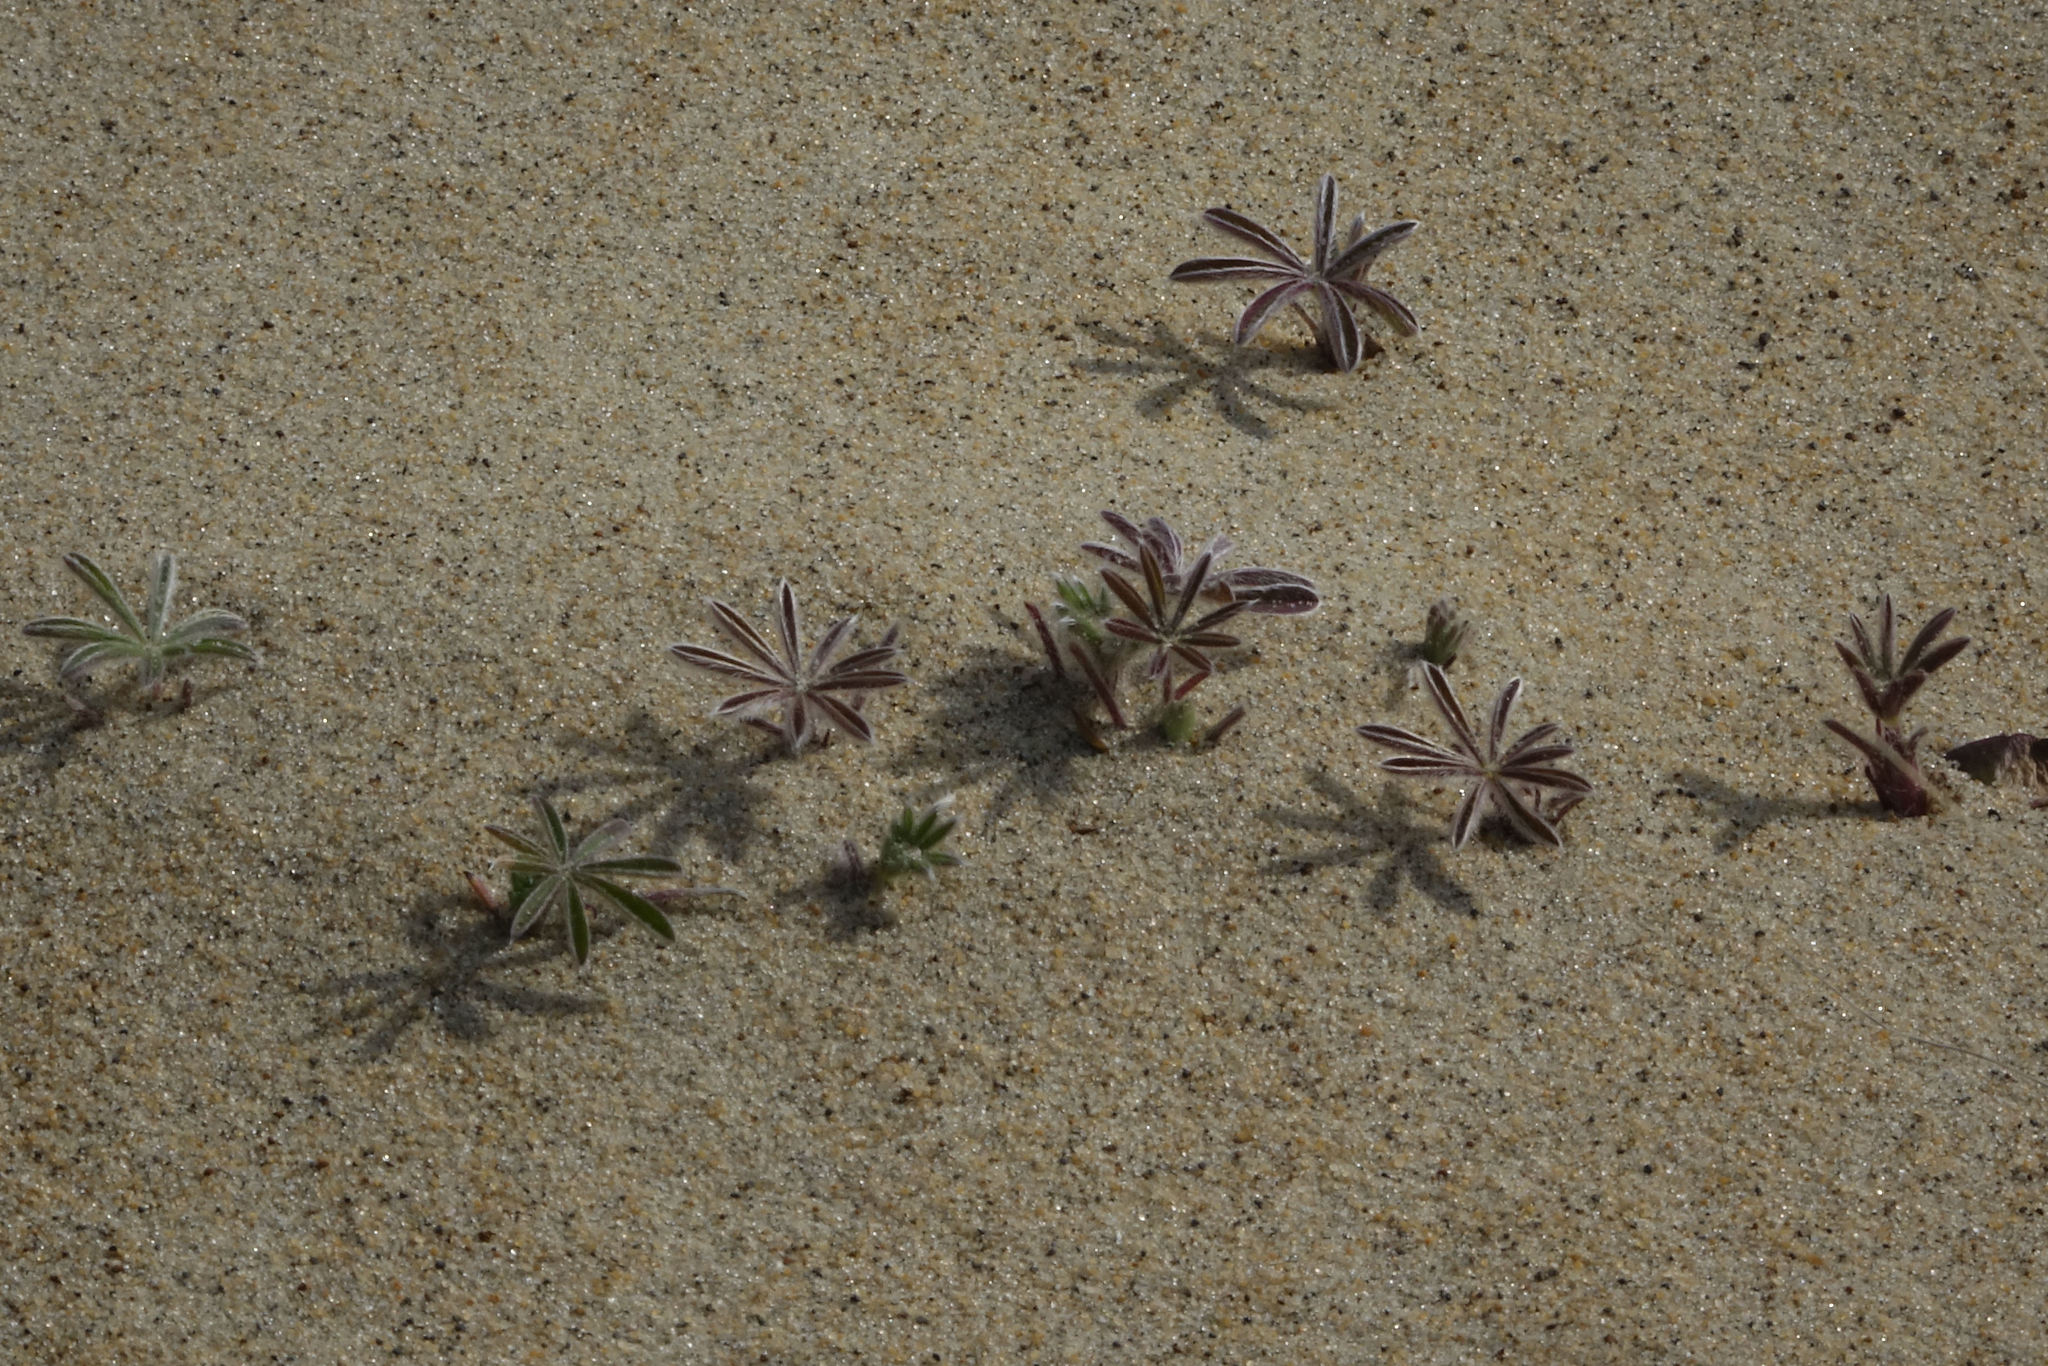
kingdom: Plantae
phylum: Tracheophyta
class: Magnoliopsida
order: Fabales
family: Fabaceae
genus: Lupinus
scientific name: Lupinus arboreus
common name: Yellow bush lupine
